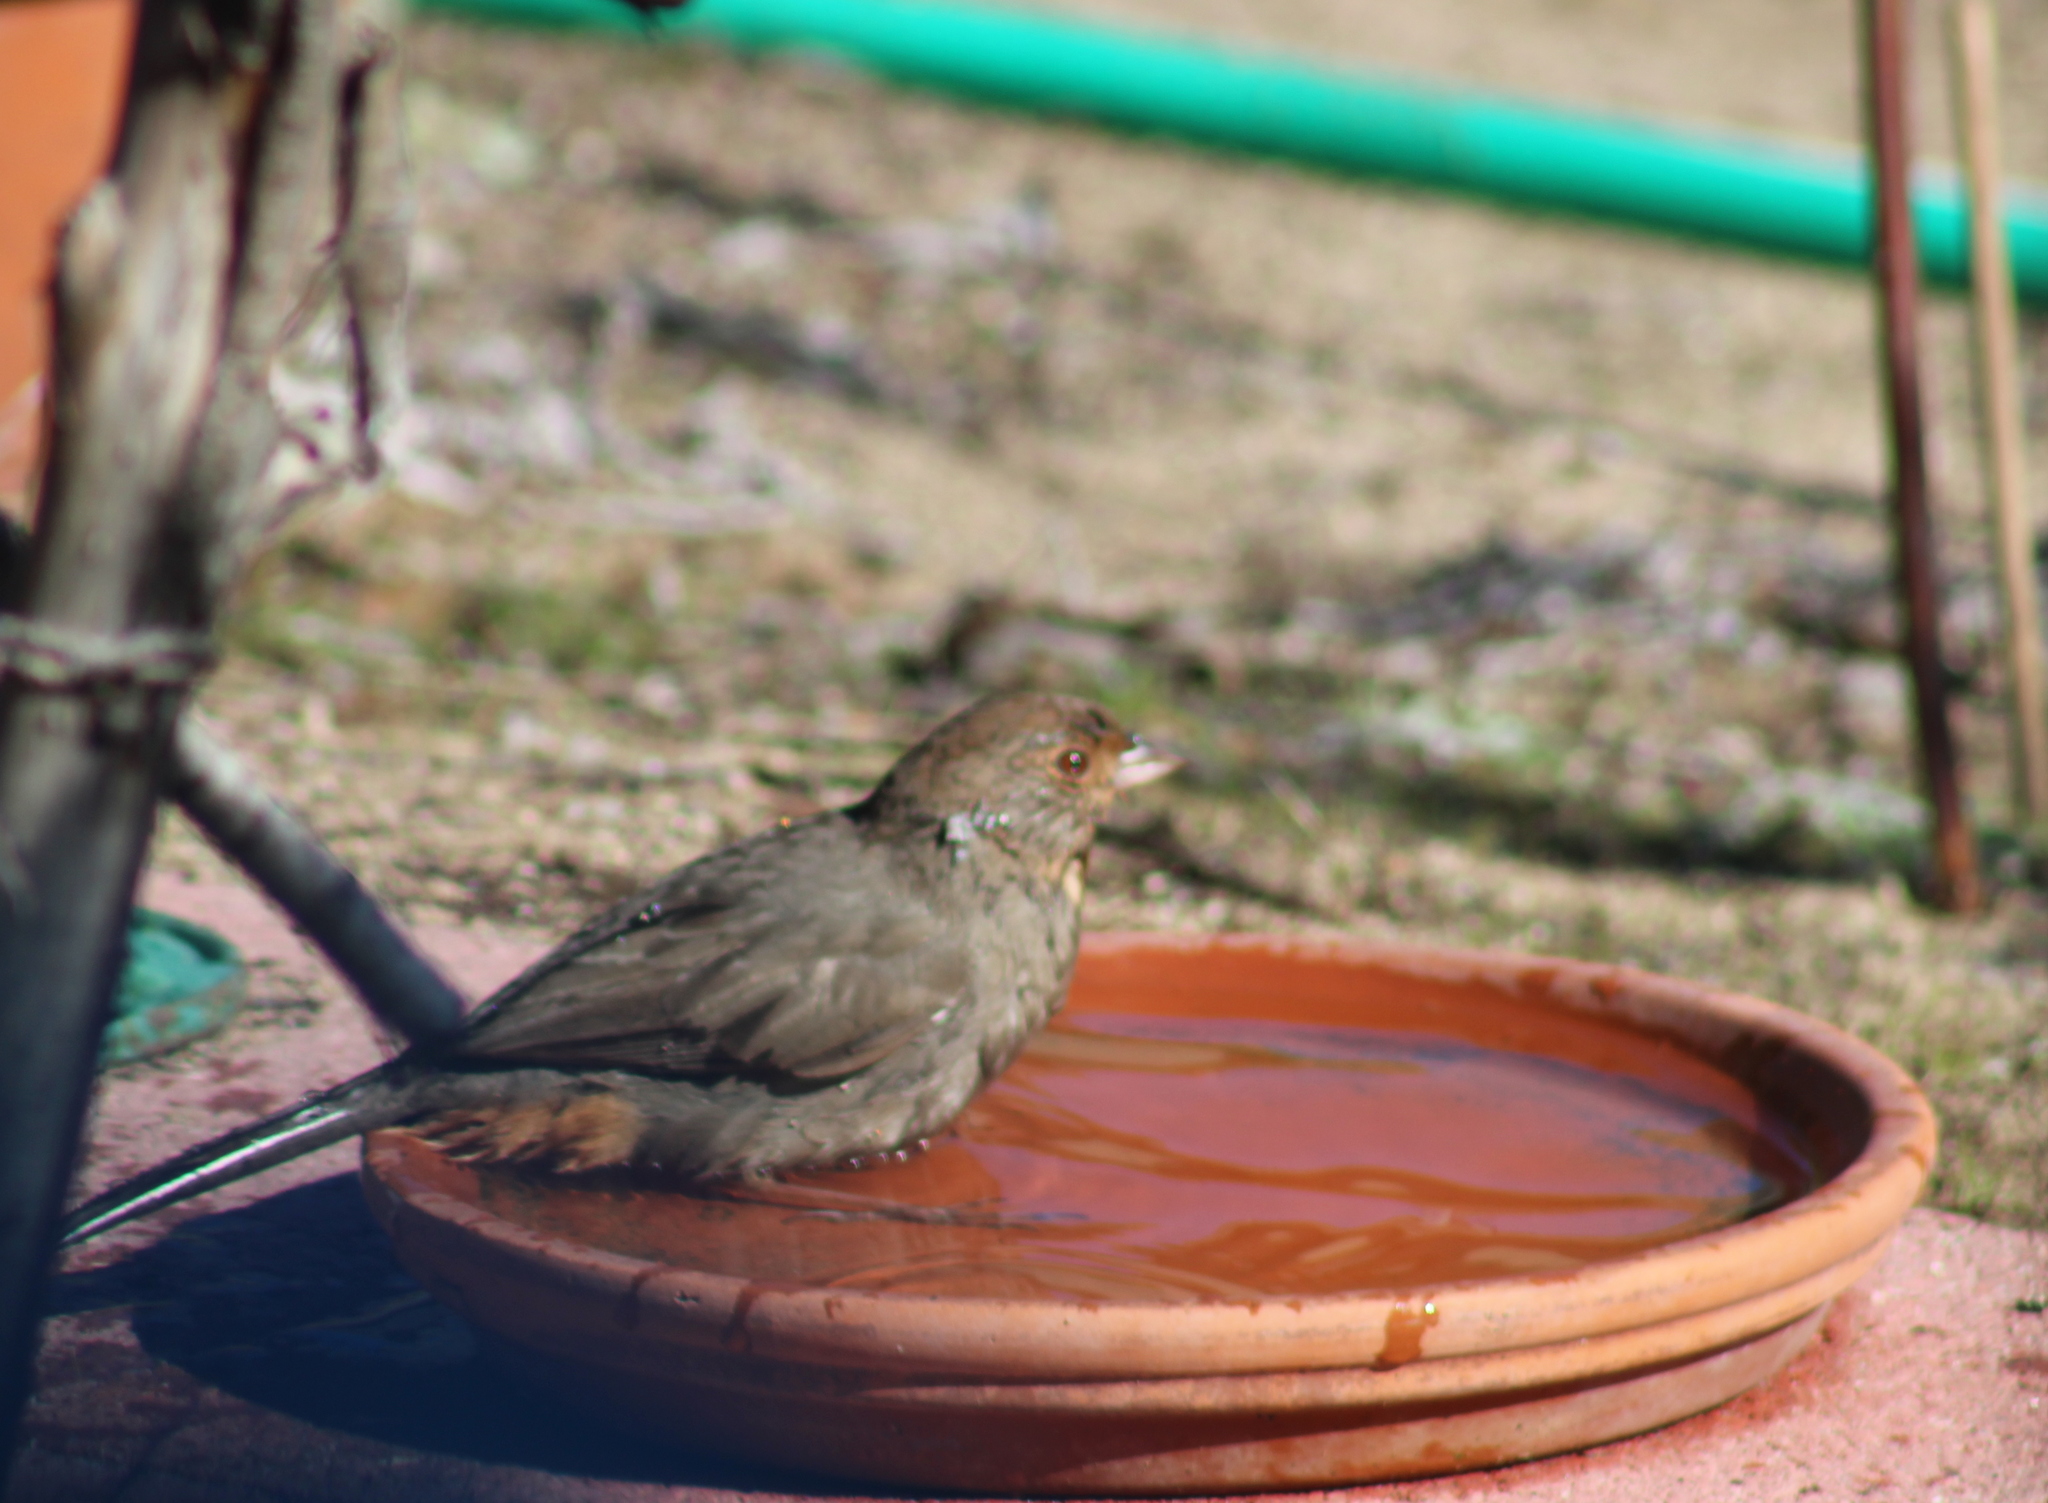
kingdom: Animalia
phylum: Chordata
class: Aves
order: Passeriformes
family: Passerellidae
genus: Melozone
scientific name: Melozone crissalis
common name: California towhee
